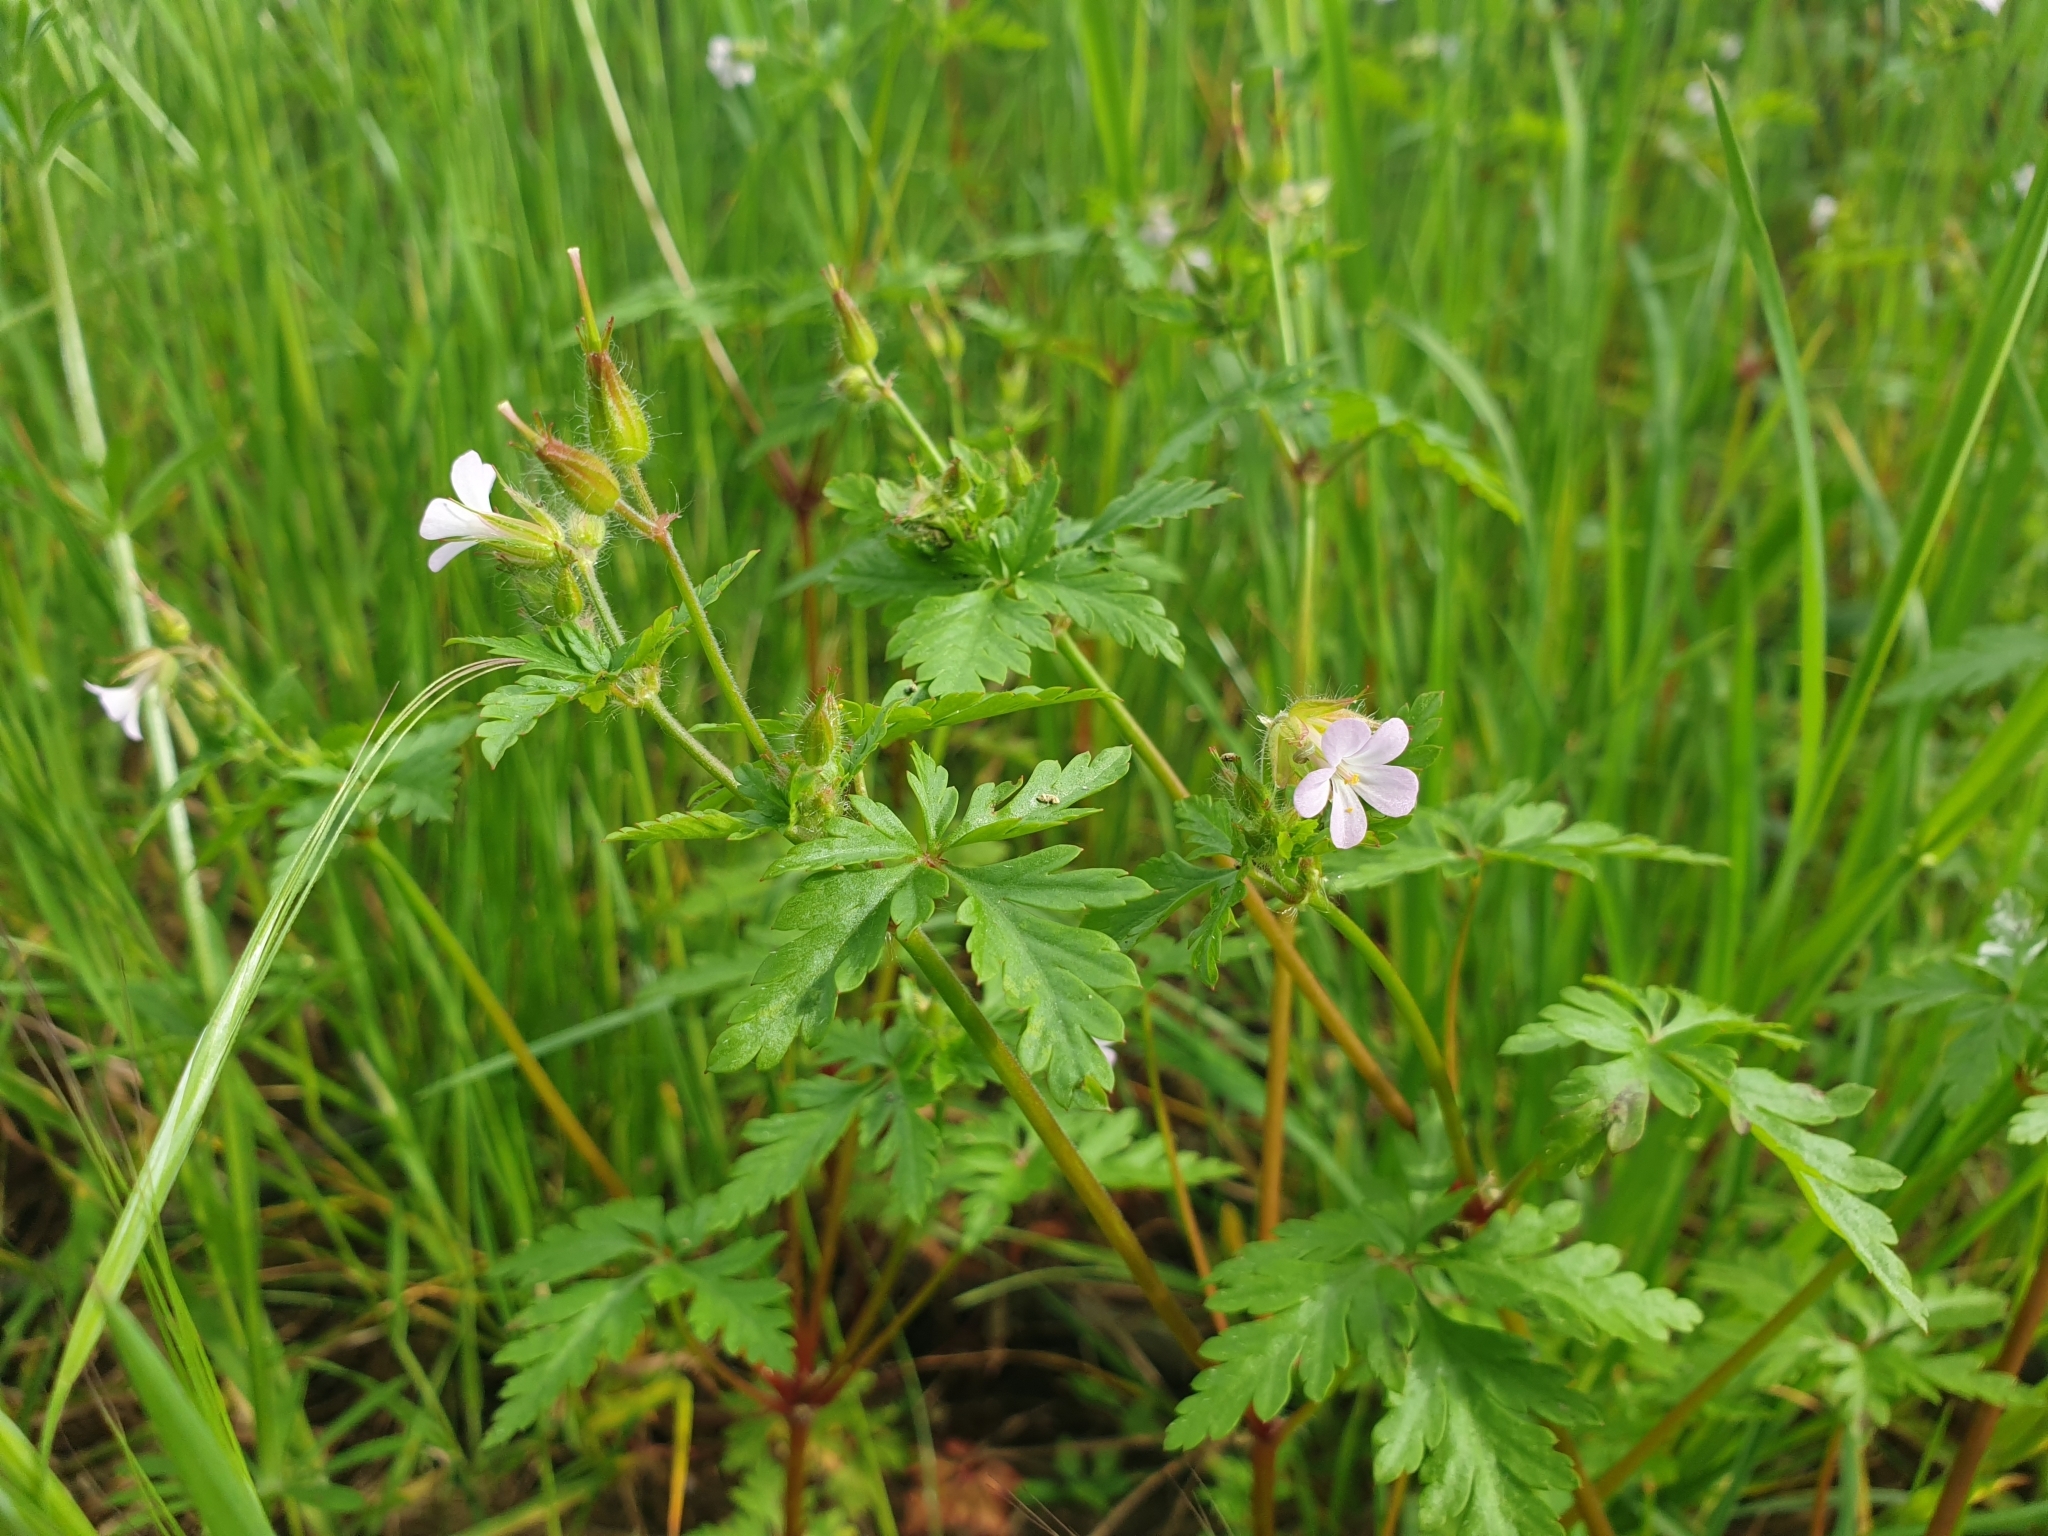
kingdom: Plantae
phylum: Tracheophyta
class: Magnoliopsida
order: Geraniales
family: Geraniaceae
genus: Geranium
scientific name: Geranium robertianum
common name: Herb-robert
